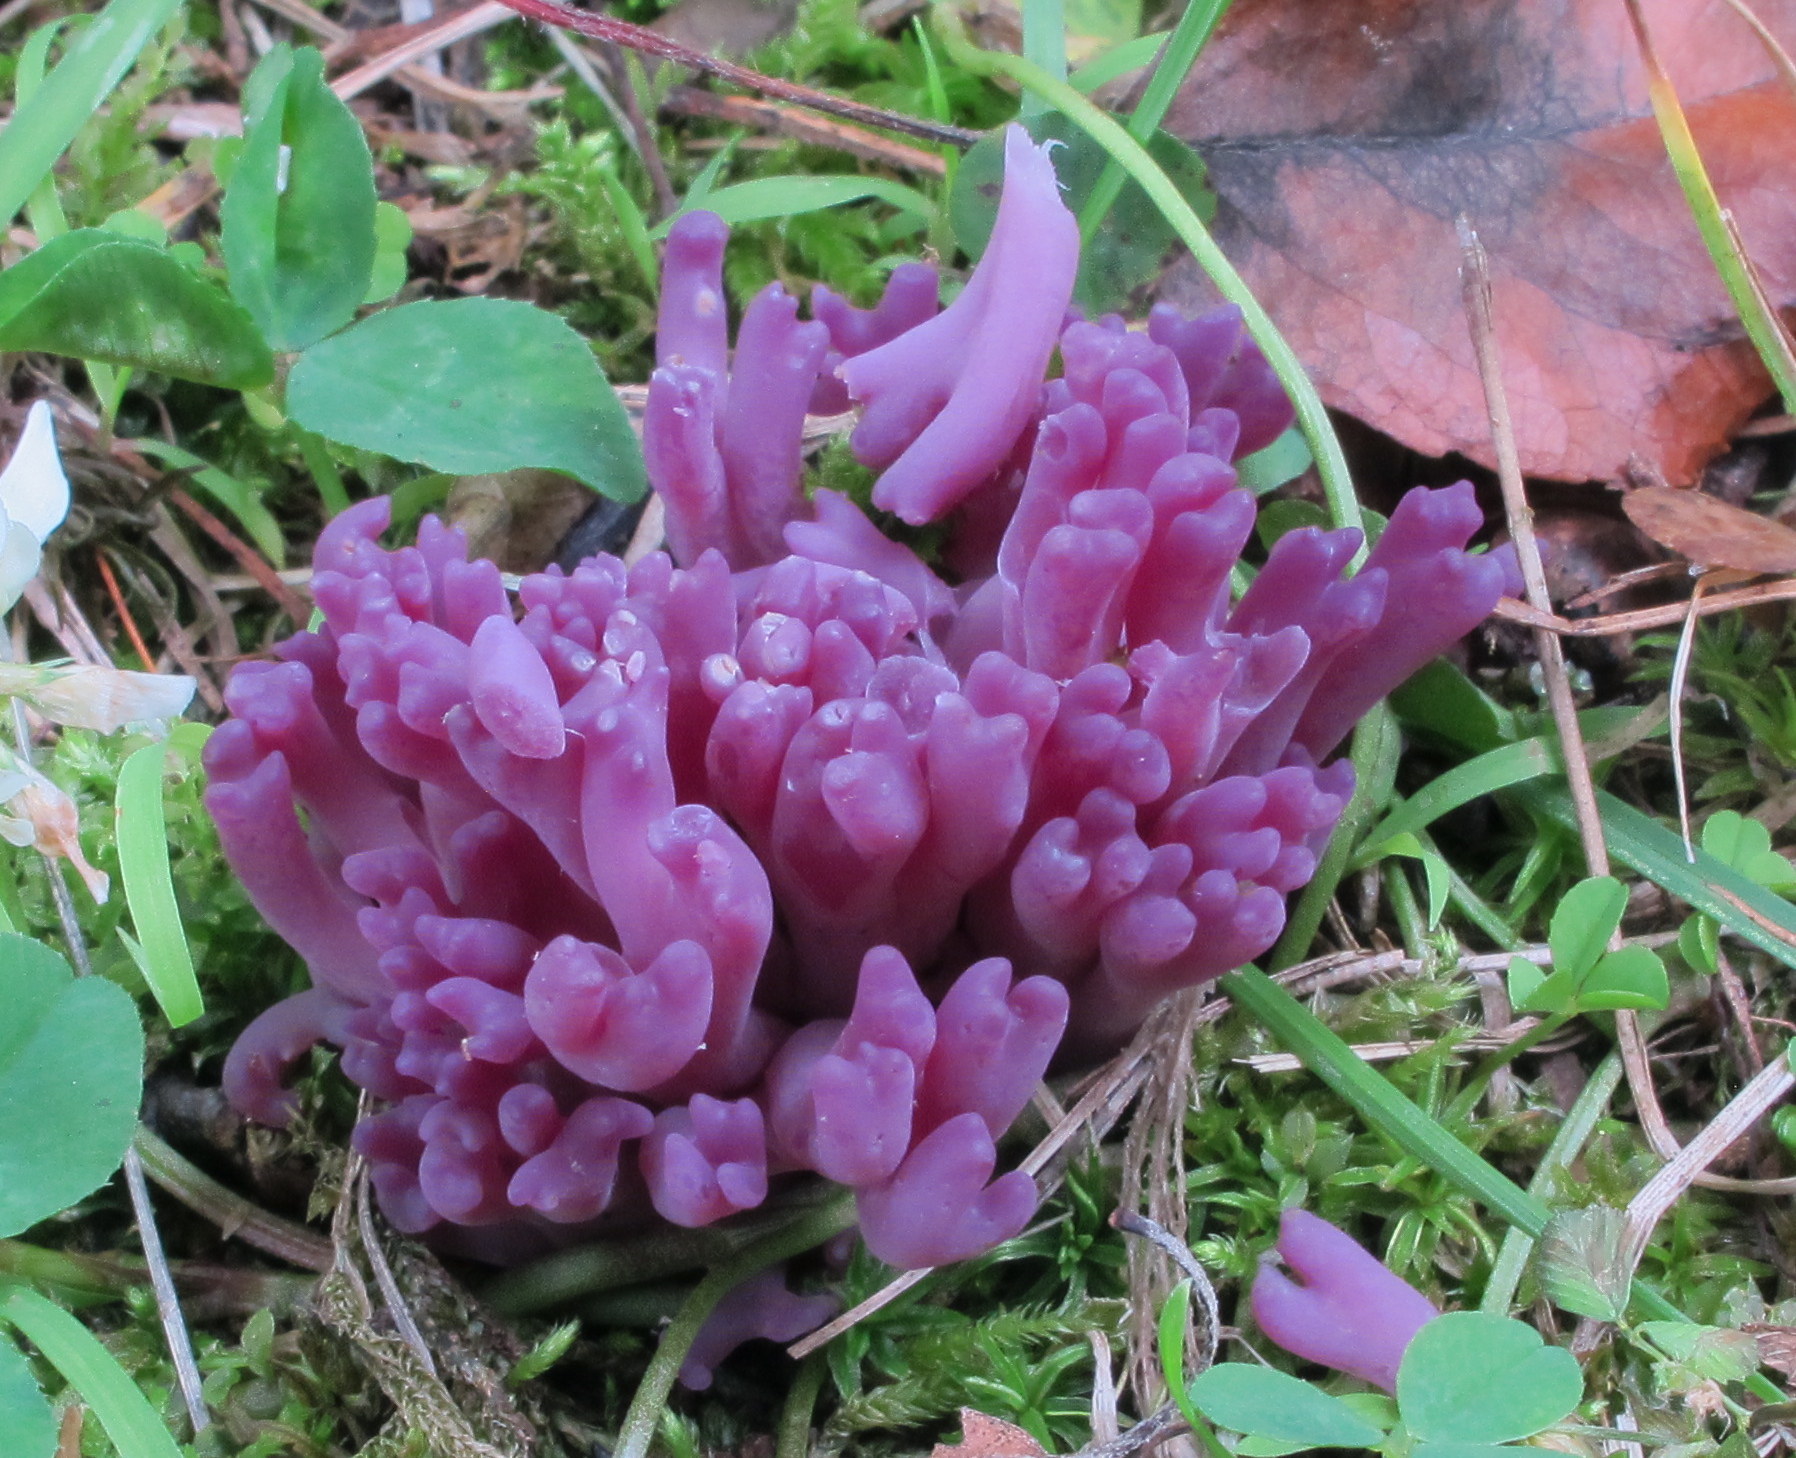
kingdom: Fungi
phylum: Basidiomycota
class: Agaricomycetes
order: Agaricales
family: Clavariaceae
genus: Clavaria
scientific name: Clavaria zollingeri
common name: Violet coral
